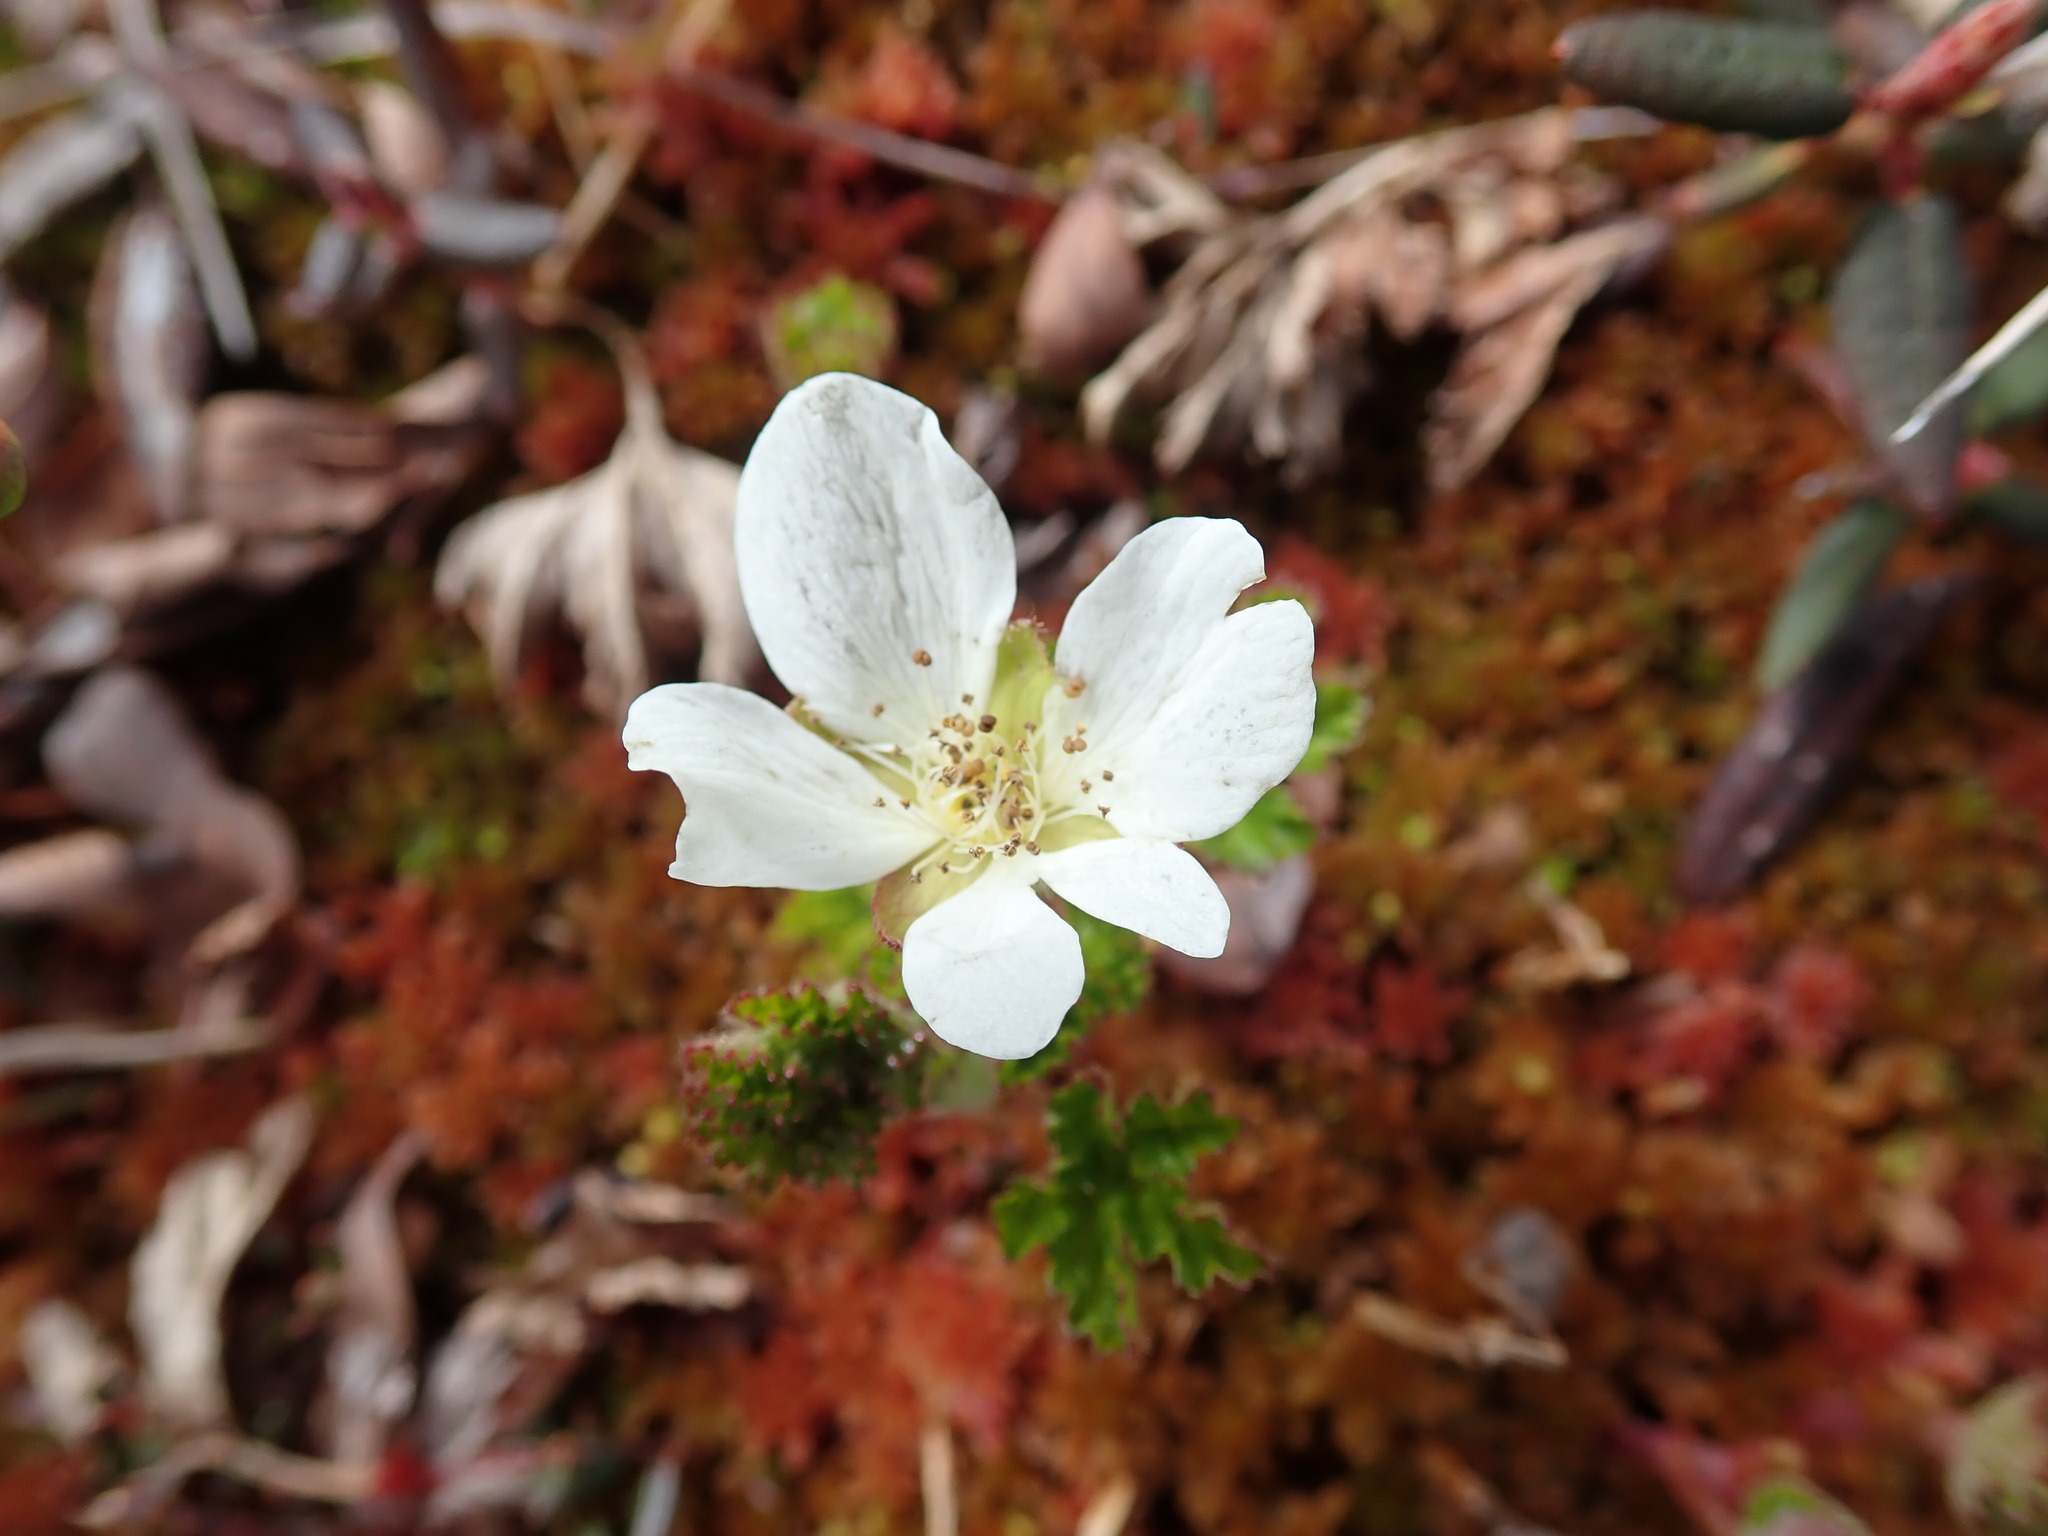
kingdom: Plantae
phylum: Tracheophyta
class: Magnoliopsida
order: Rosales
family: Rosaceae
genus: Rubus
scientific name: Rubus chamaemorus
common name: Cloudberry
